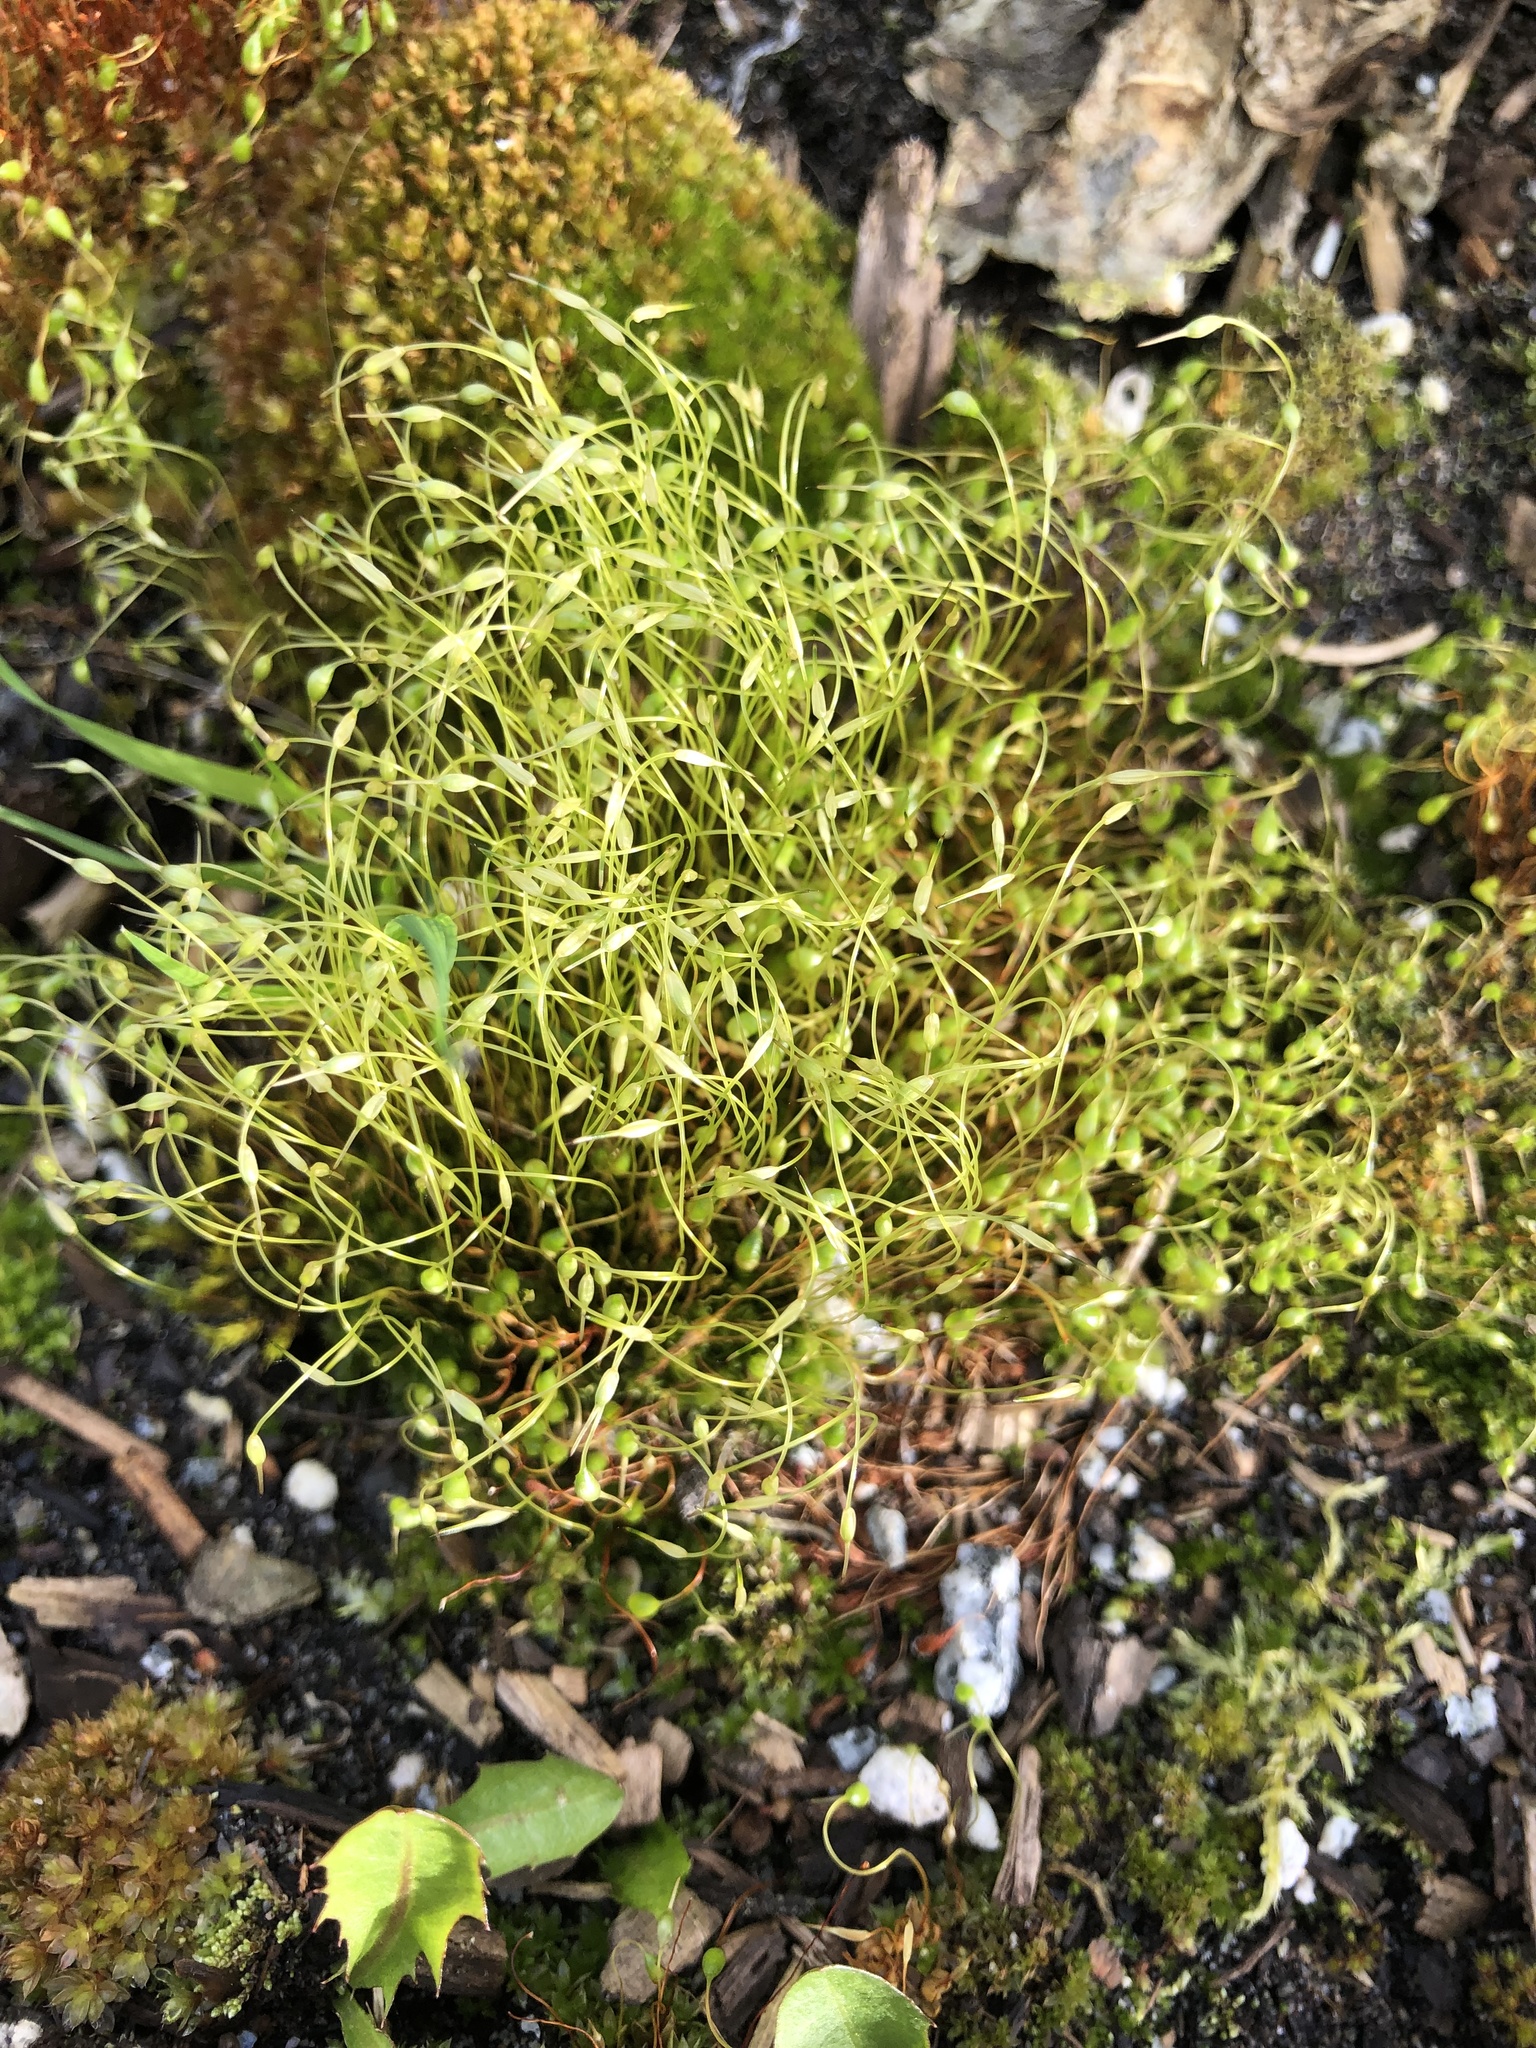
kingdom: Plantae
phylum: Bryophyta
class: Bryopsida
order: Funariales
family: Funariaceae
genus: Funaria
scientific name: Funaria hygrometrica
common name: Common cord moss
